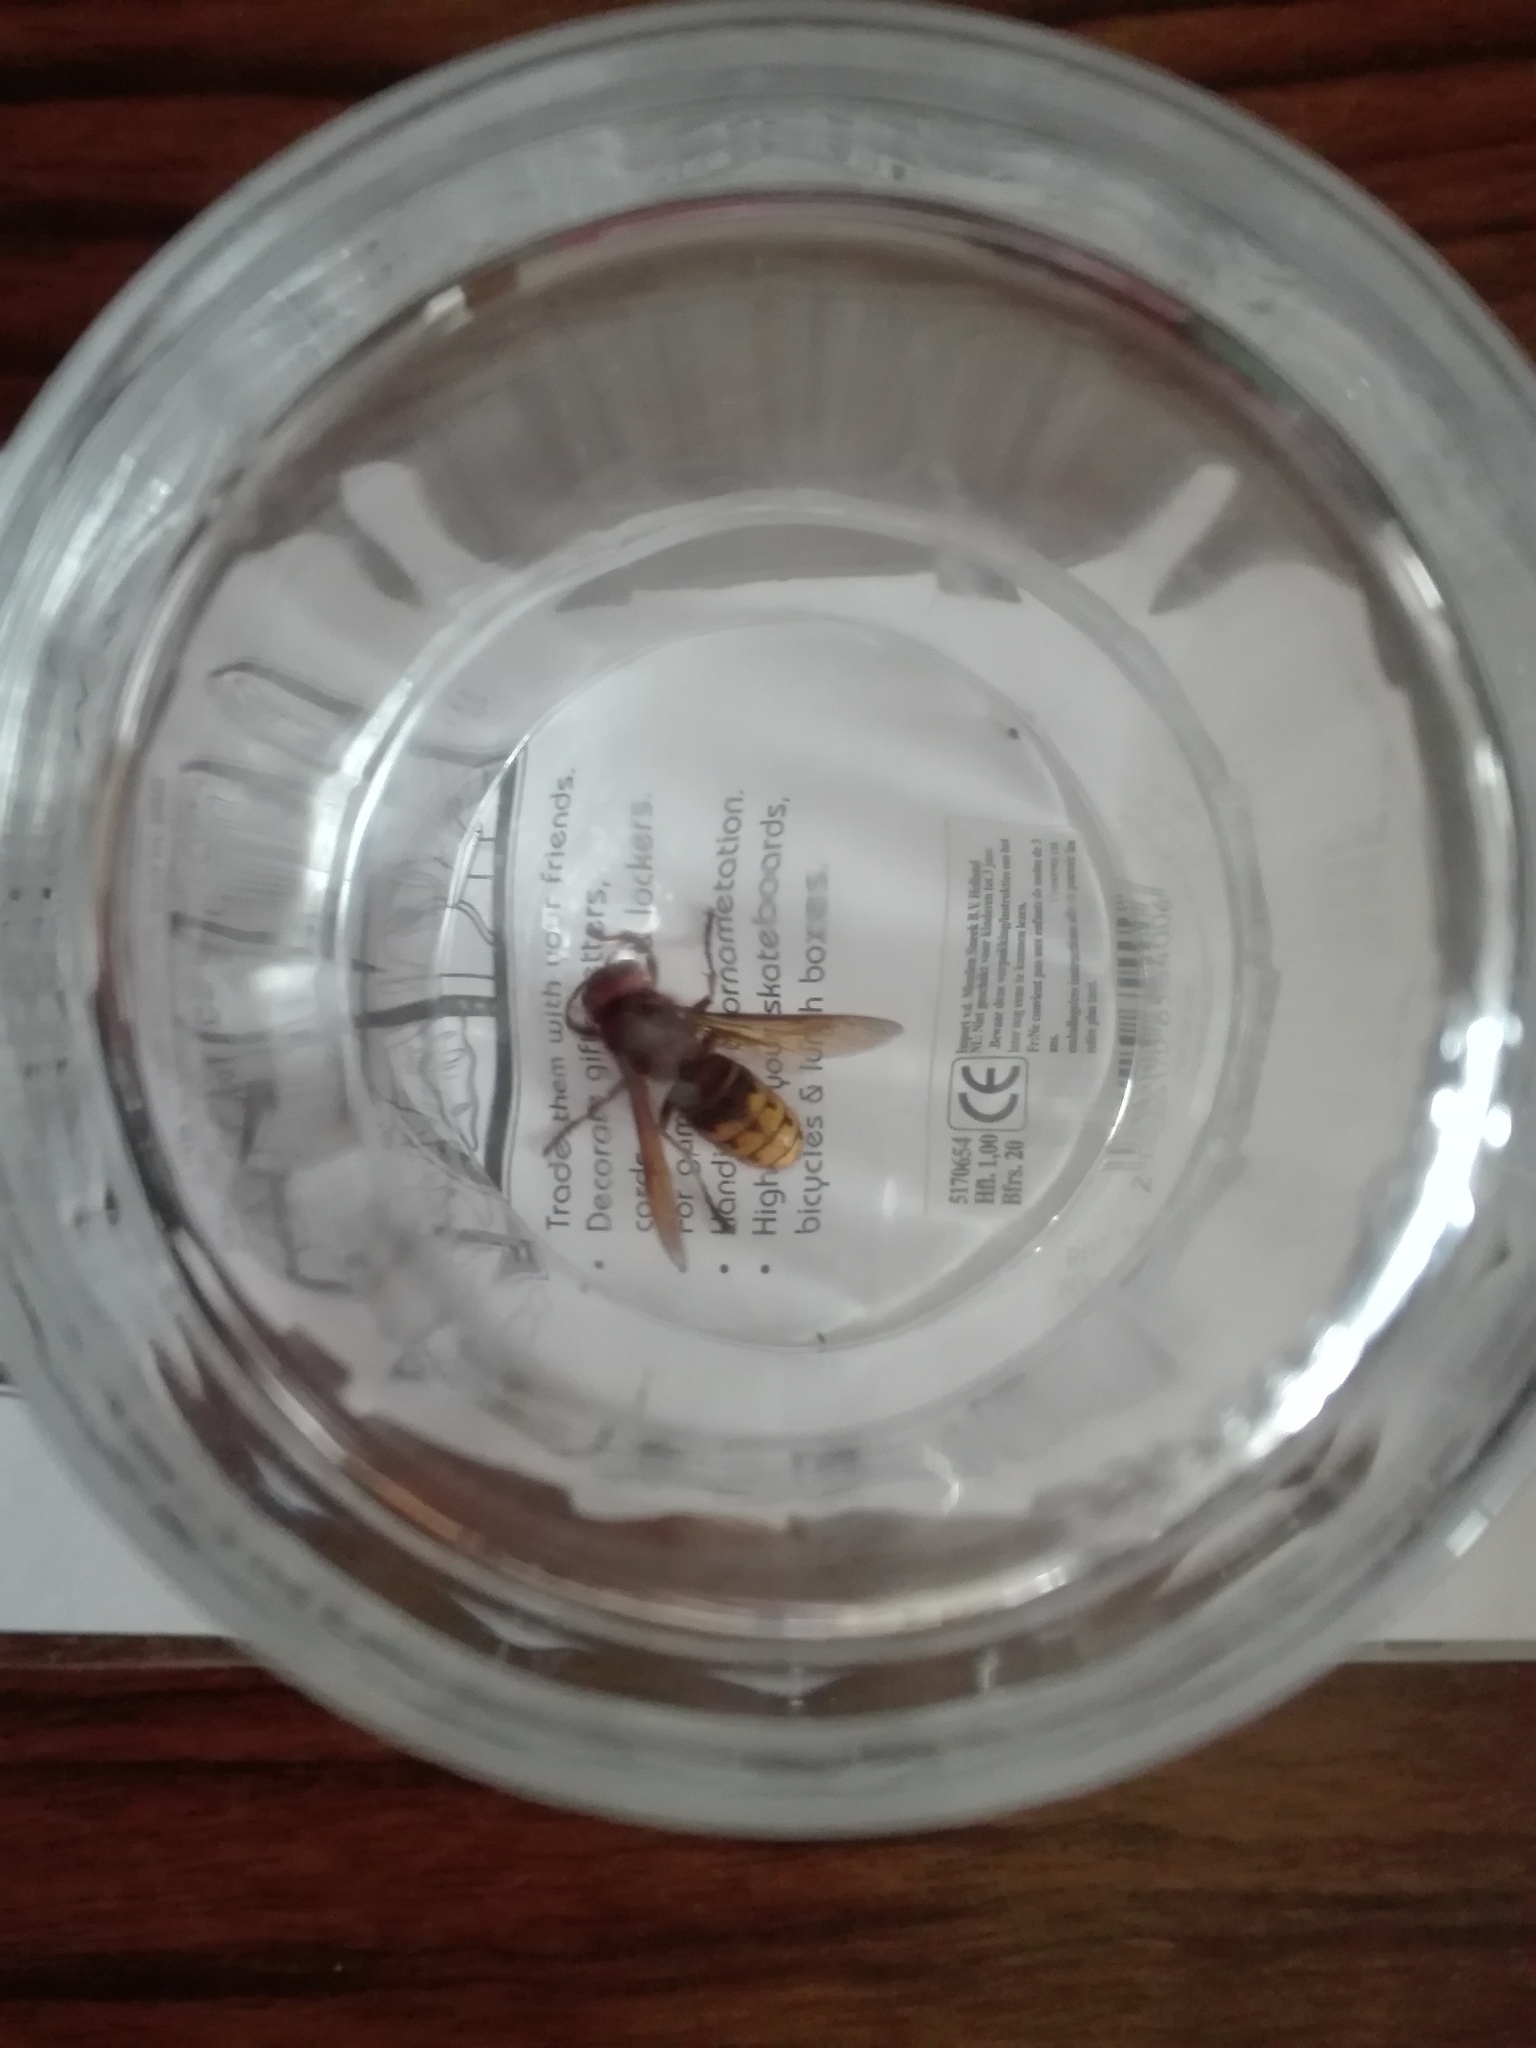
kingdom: Animalia
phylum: Arthropoda
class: Insecta
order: Hymenoptera
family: Vespidae
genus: Vespa
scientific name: Vespa crabro
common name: Hornet
